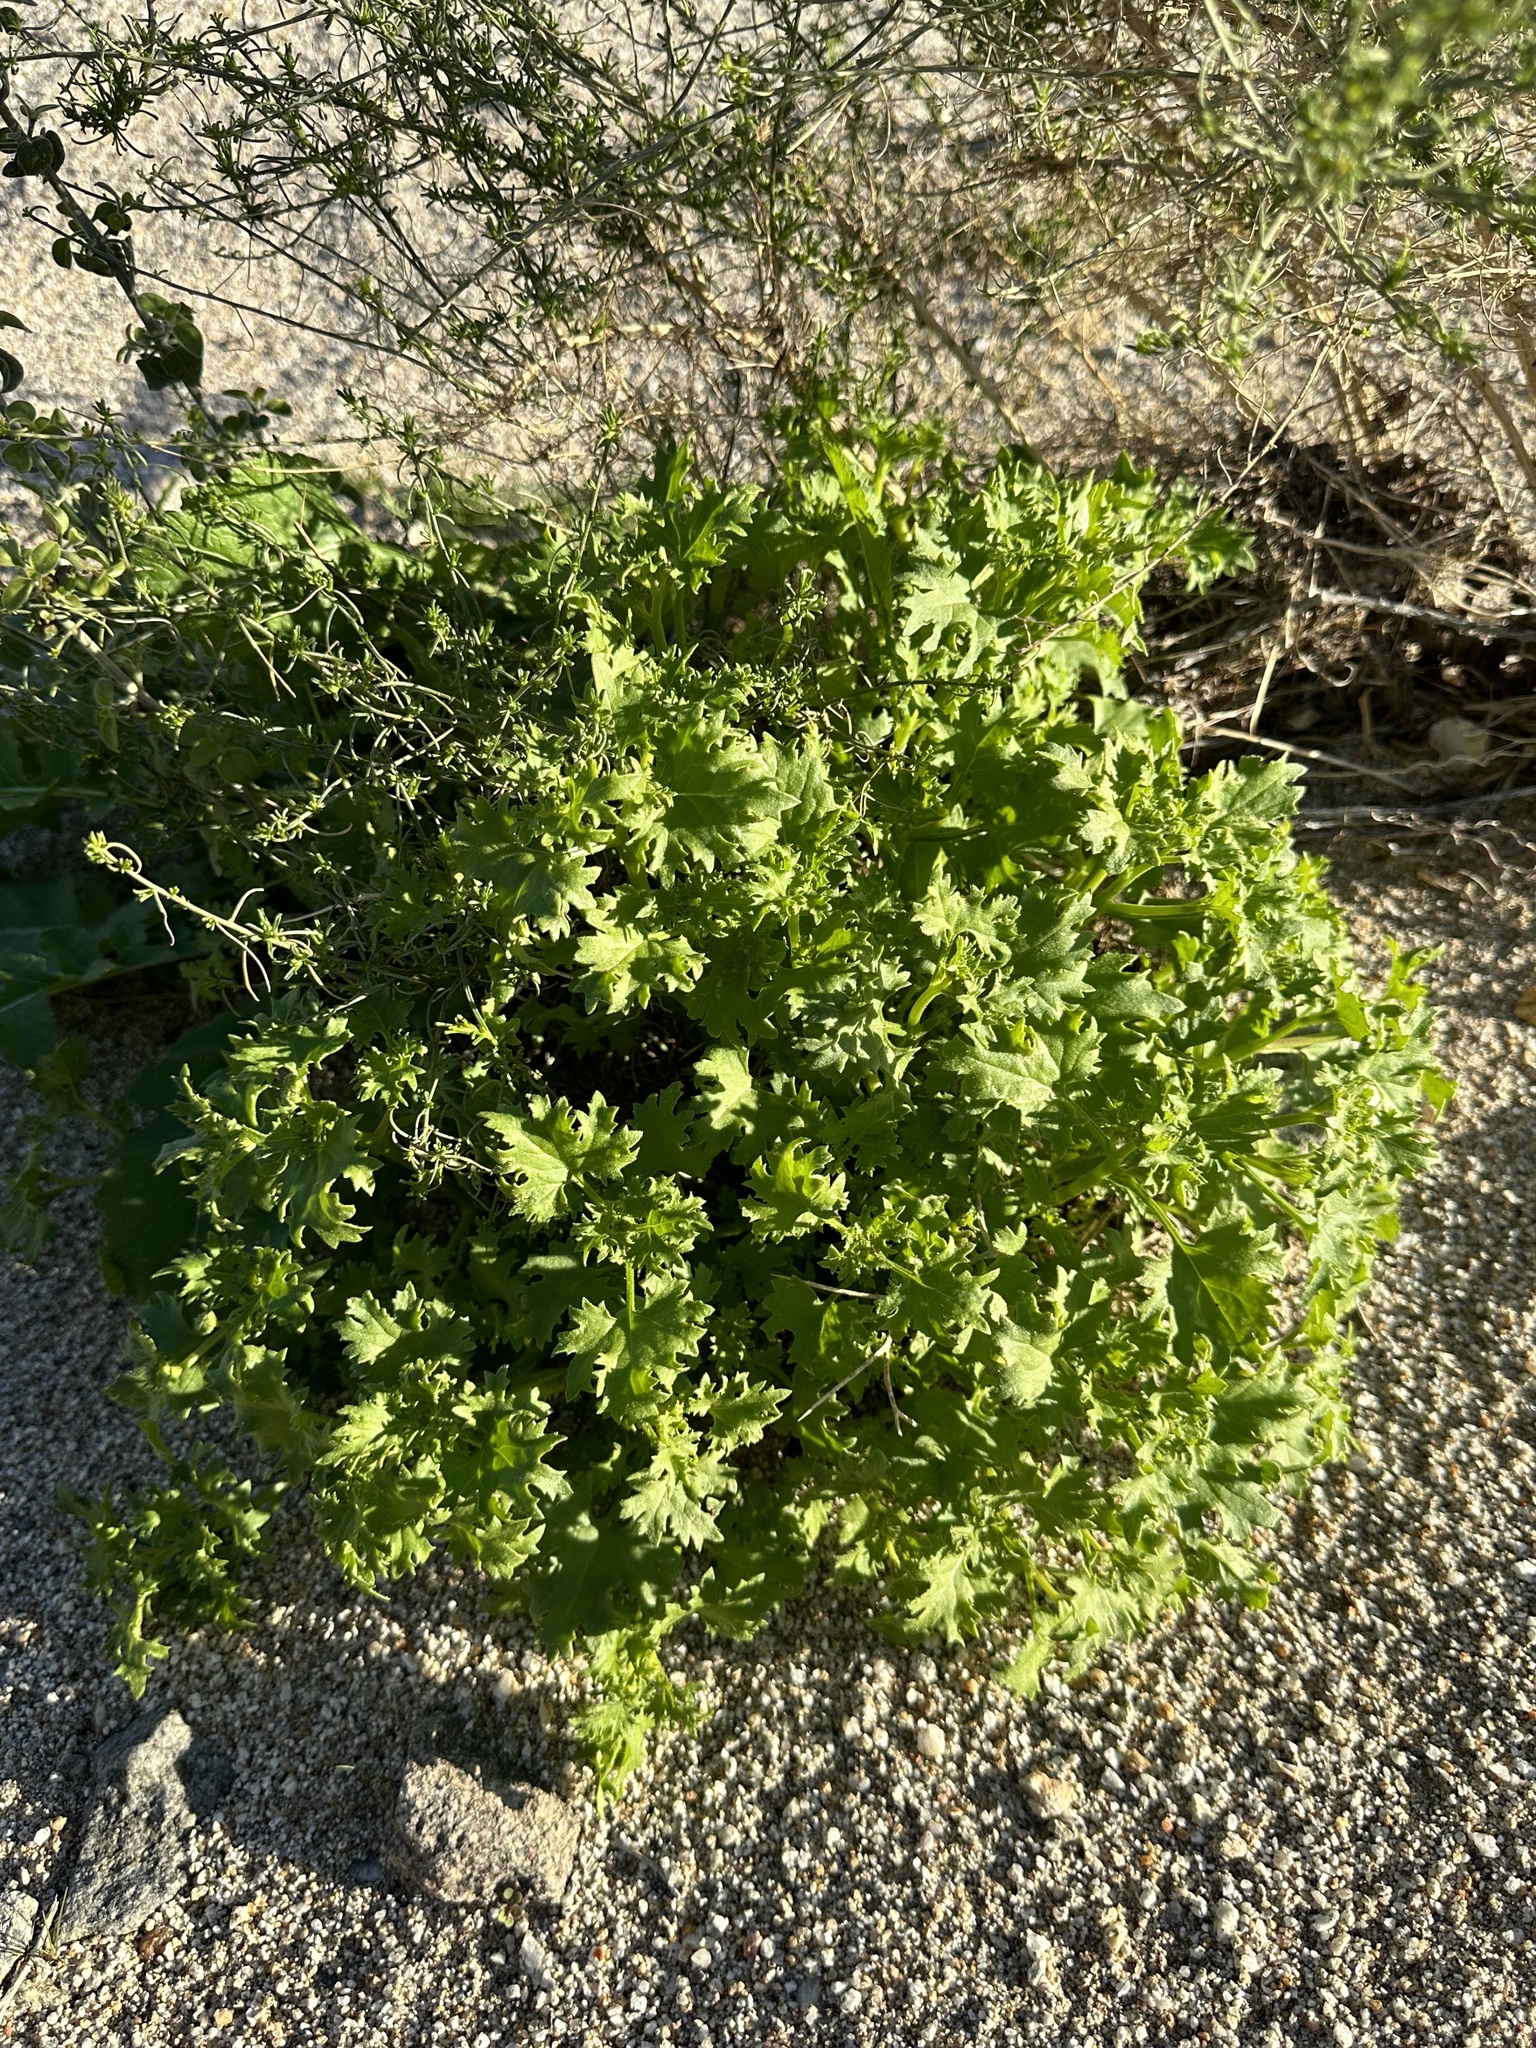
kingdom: Plantae
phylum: Tracheophyta
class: Magnoliopsida
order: Asterales
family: Asteraceae
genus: Laphamia
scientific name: Laphamia emoryi
